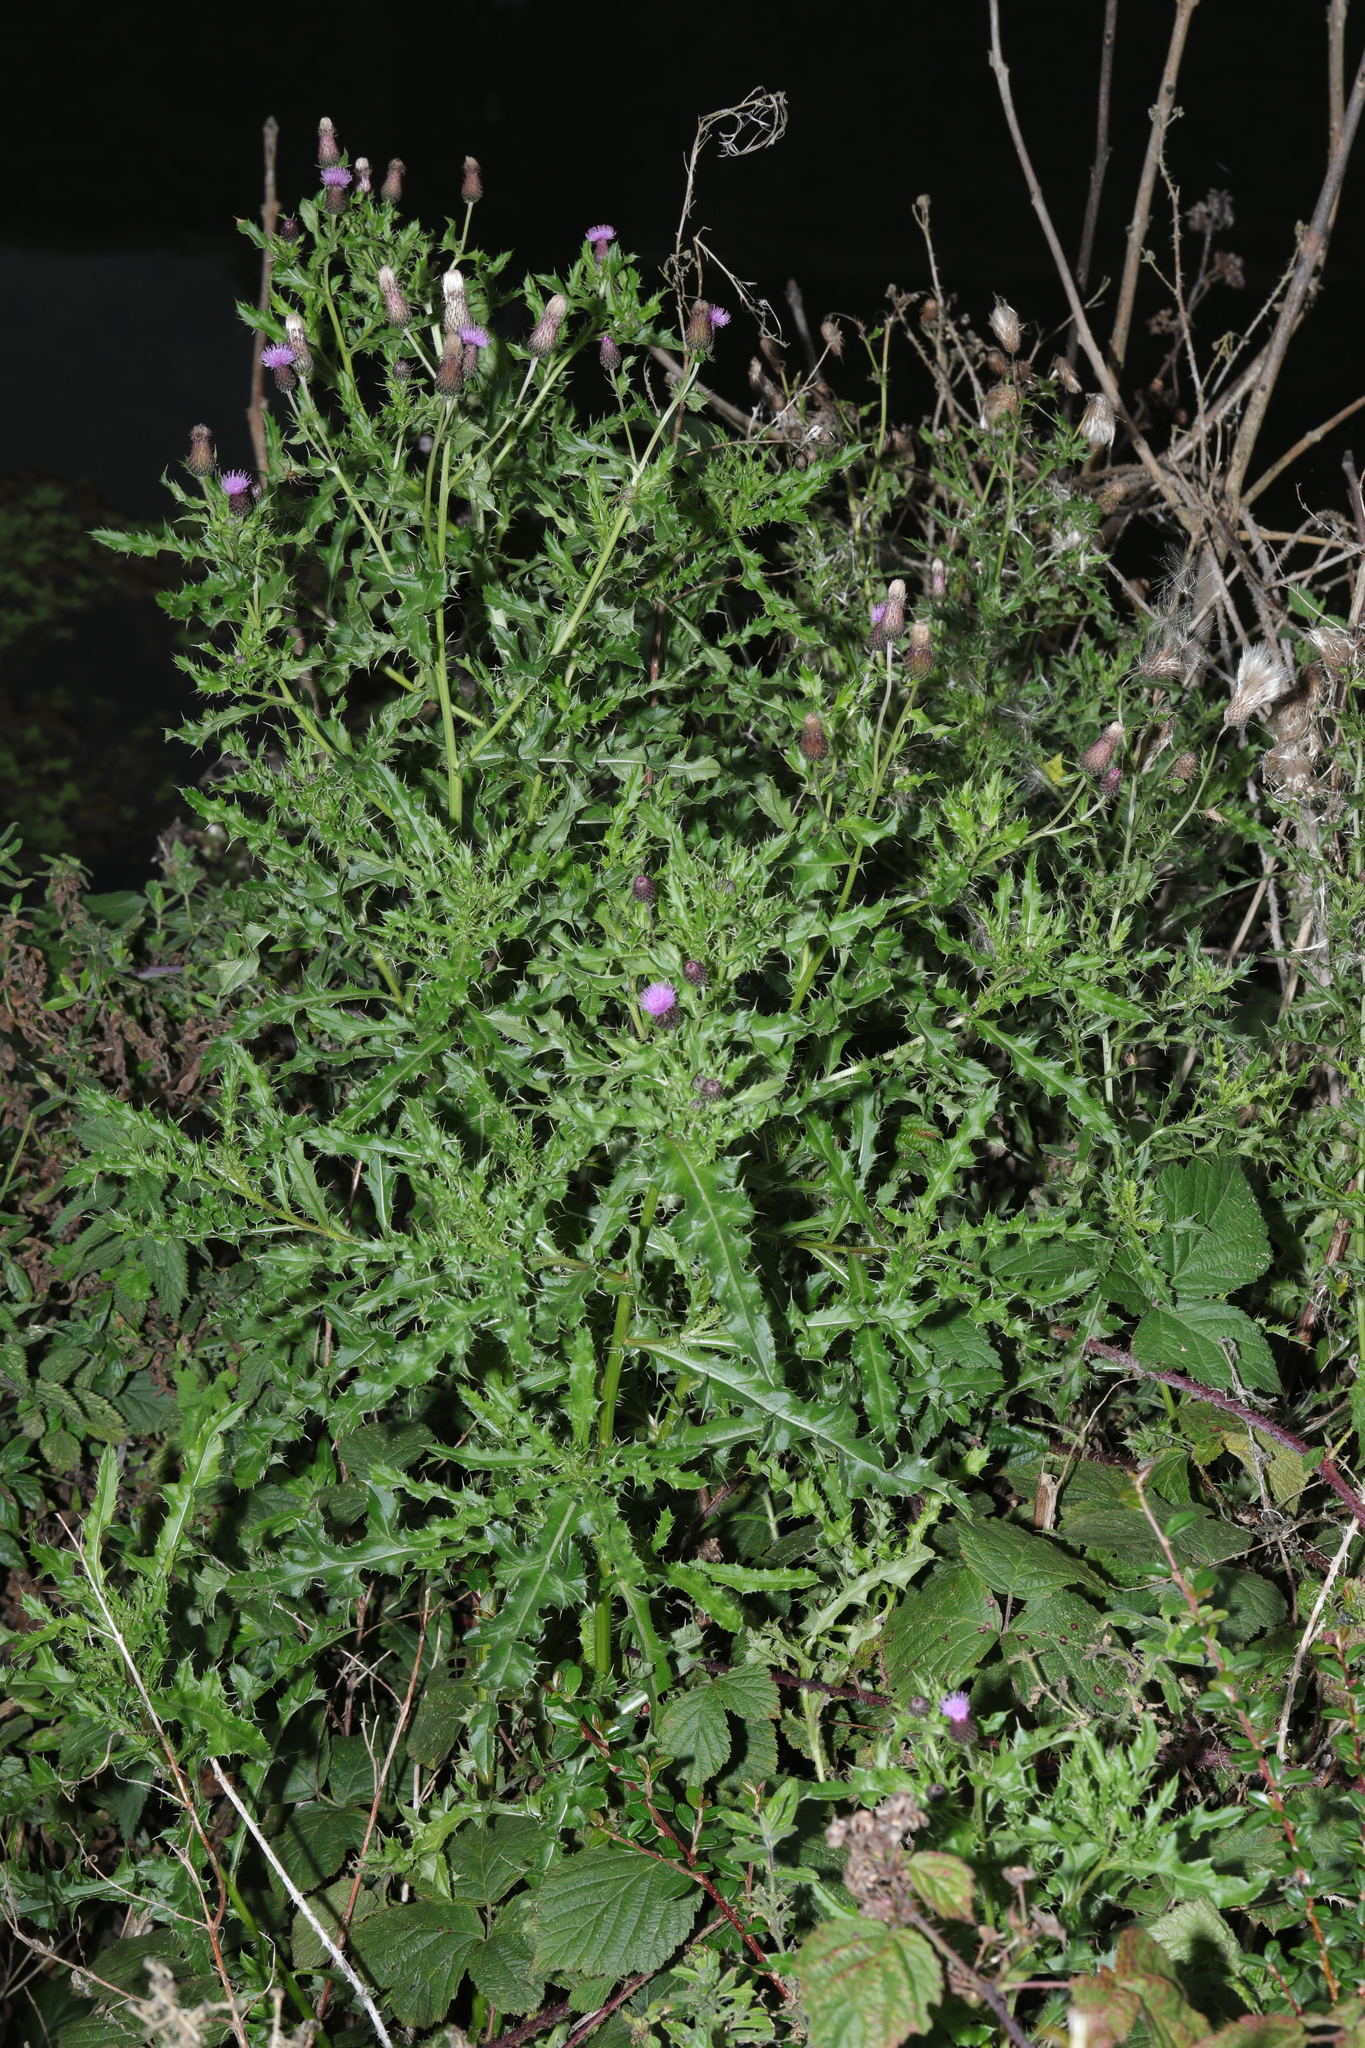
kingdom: Plantae
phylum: Tracheophyta
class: Magnoliopsida
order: Asterales
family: Asteraceae
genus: Cirsium
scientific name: Cirsium arvense
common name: Creeping thistle
